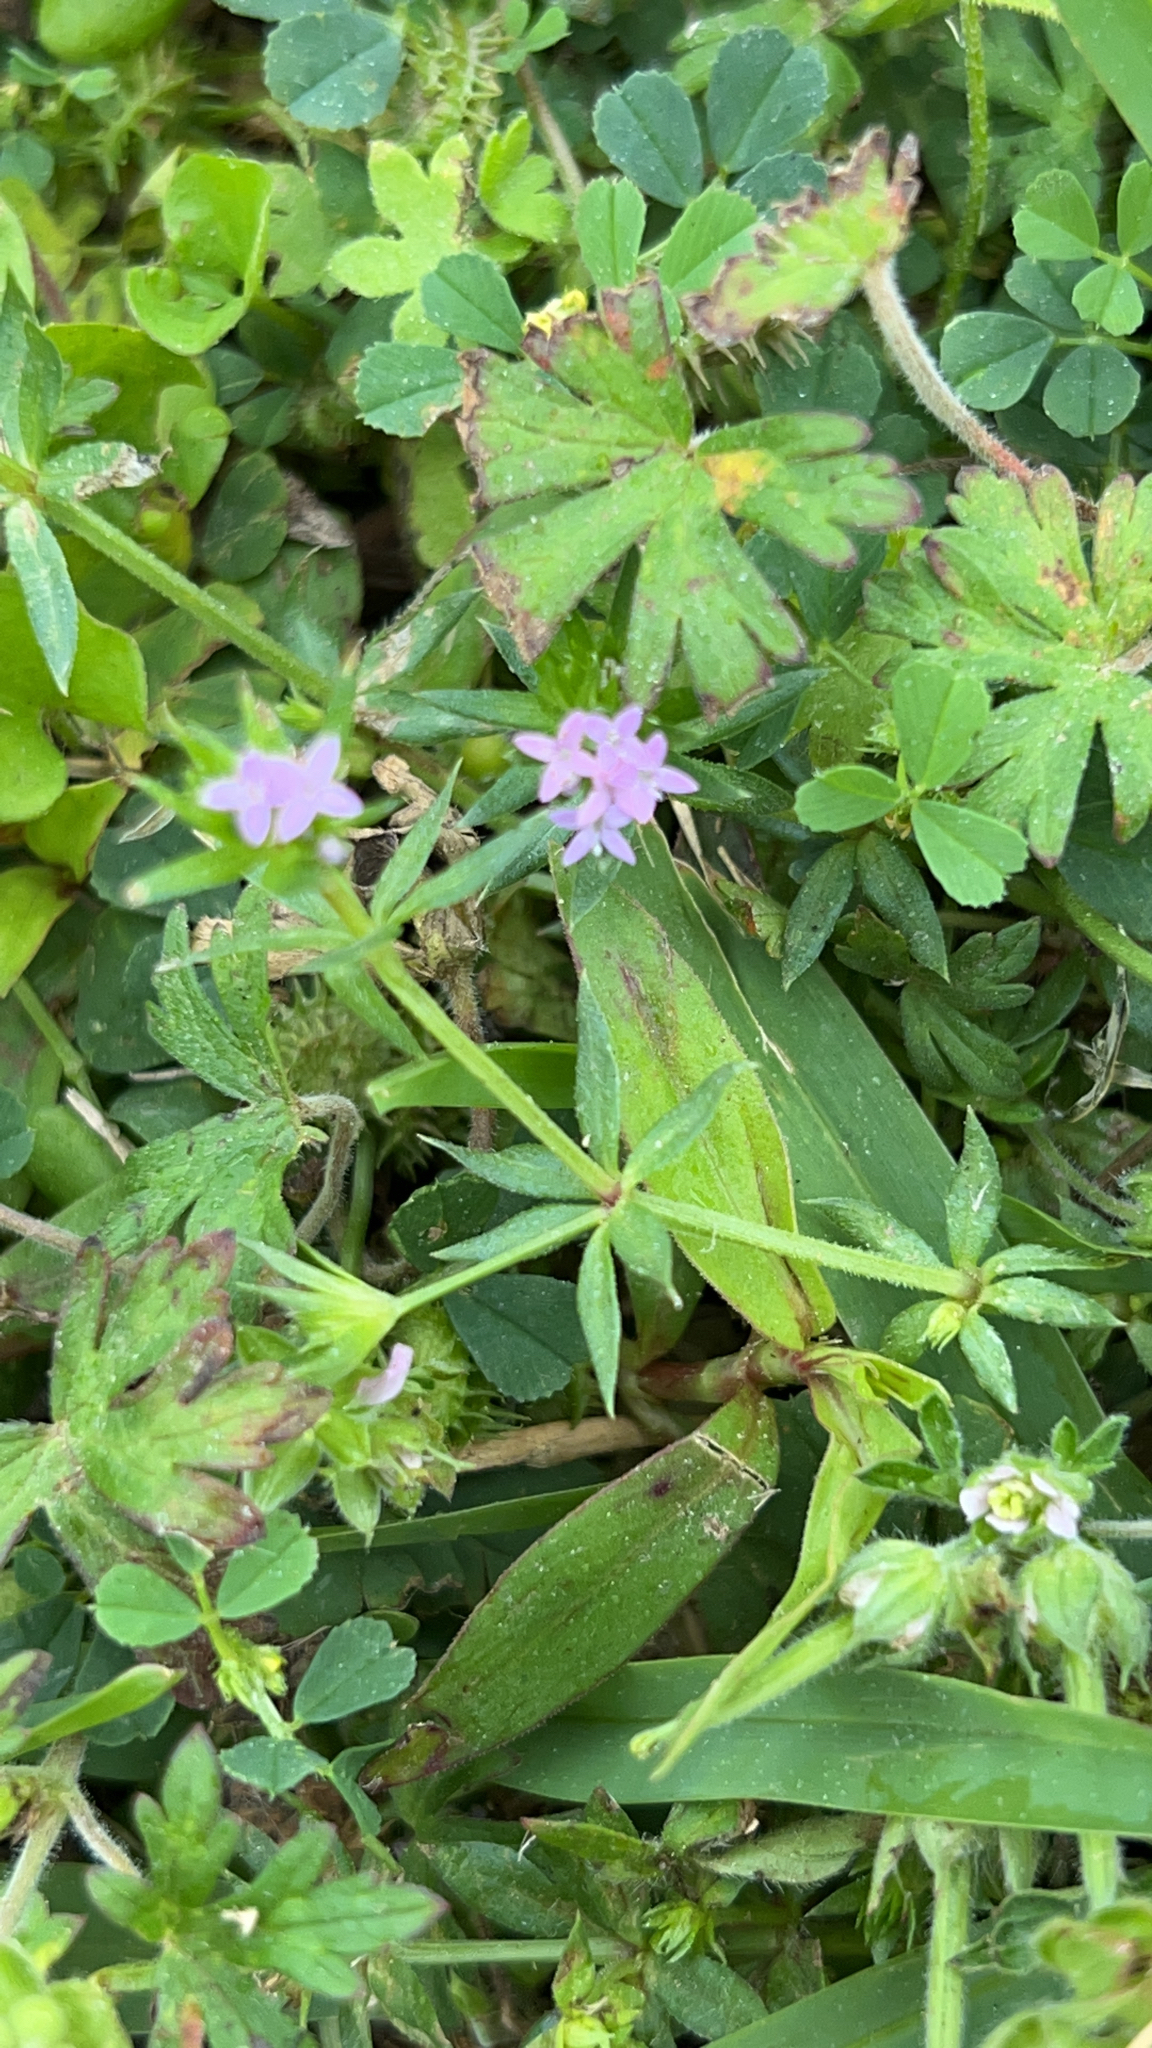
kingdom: Plantae
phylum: Tracheophyta
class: Magnoliopsida
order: Gentianales
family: Rubiaceae
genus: Sherardia
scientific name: Sherardia arvensis
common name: Field madder
